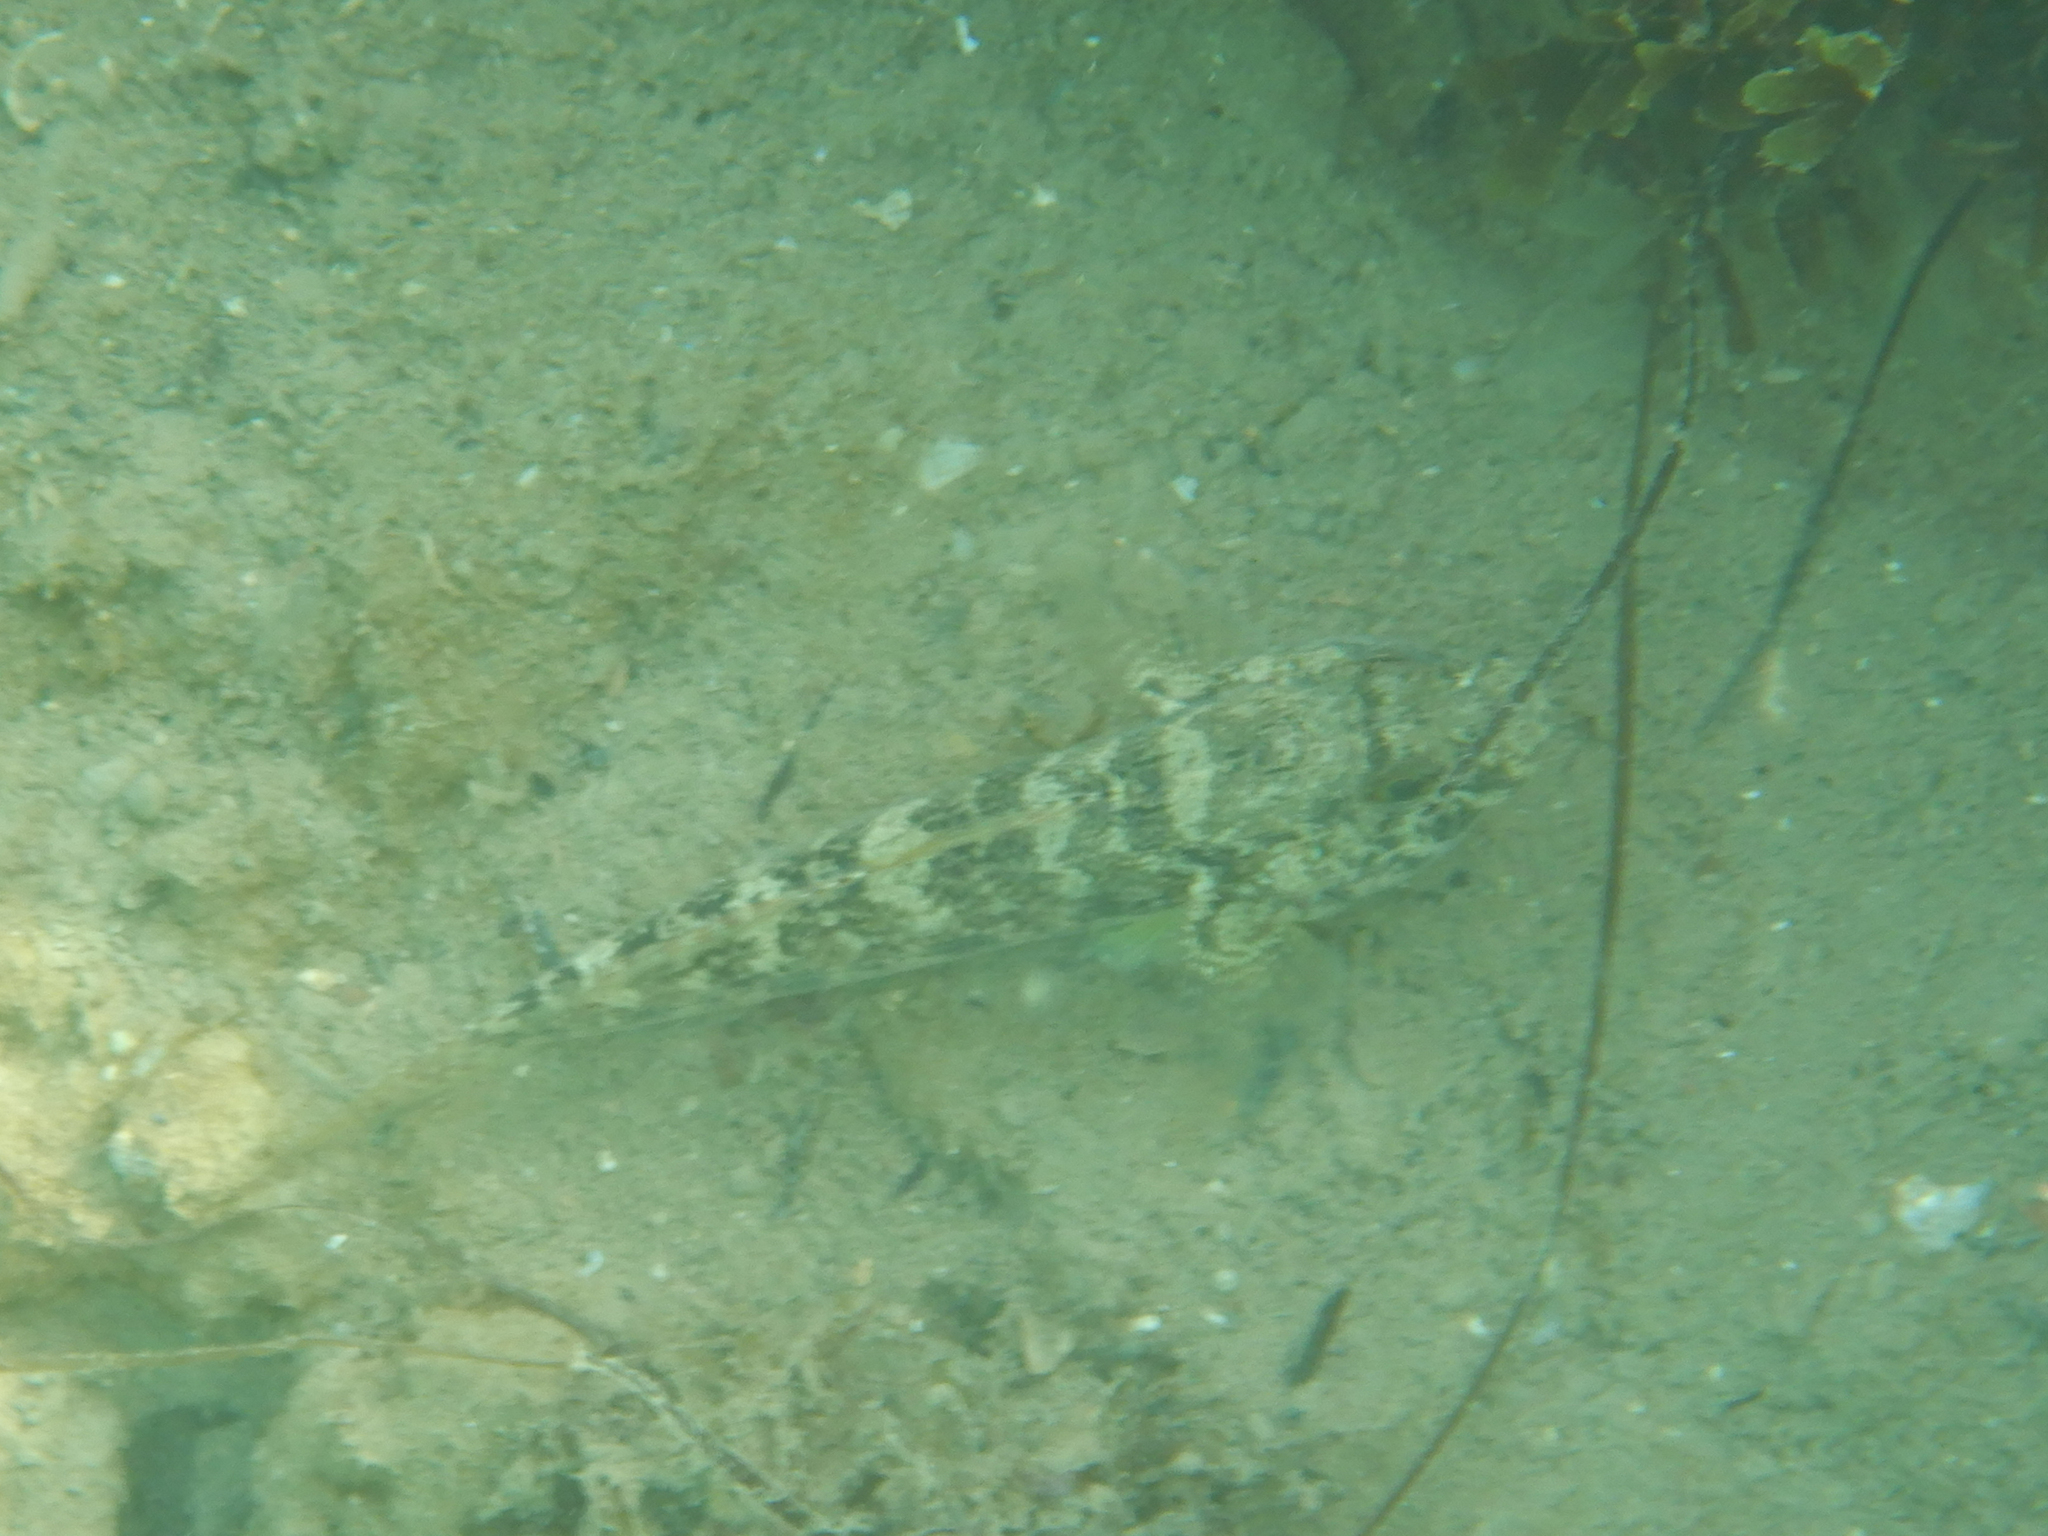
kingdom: Animalia
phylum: Chordata
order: Perciformes
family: Gobiidae
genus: Gobius
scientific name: Gobius niger
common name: Black goby
